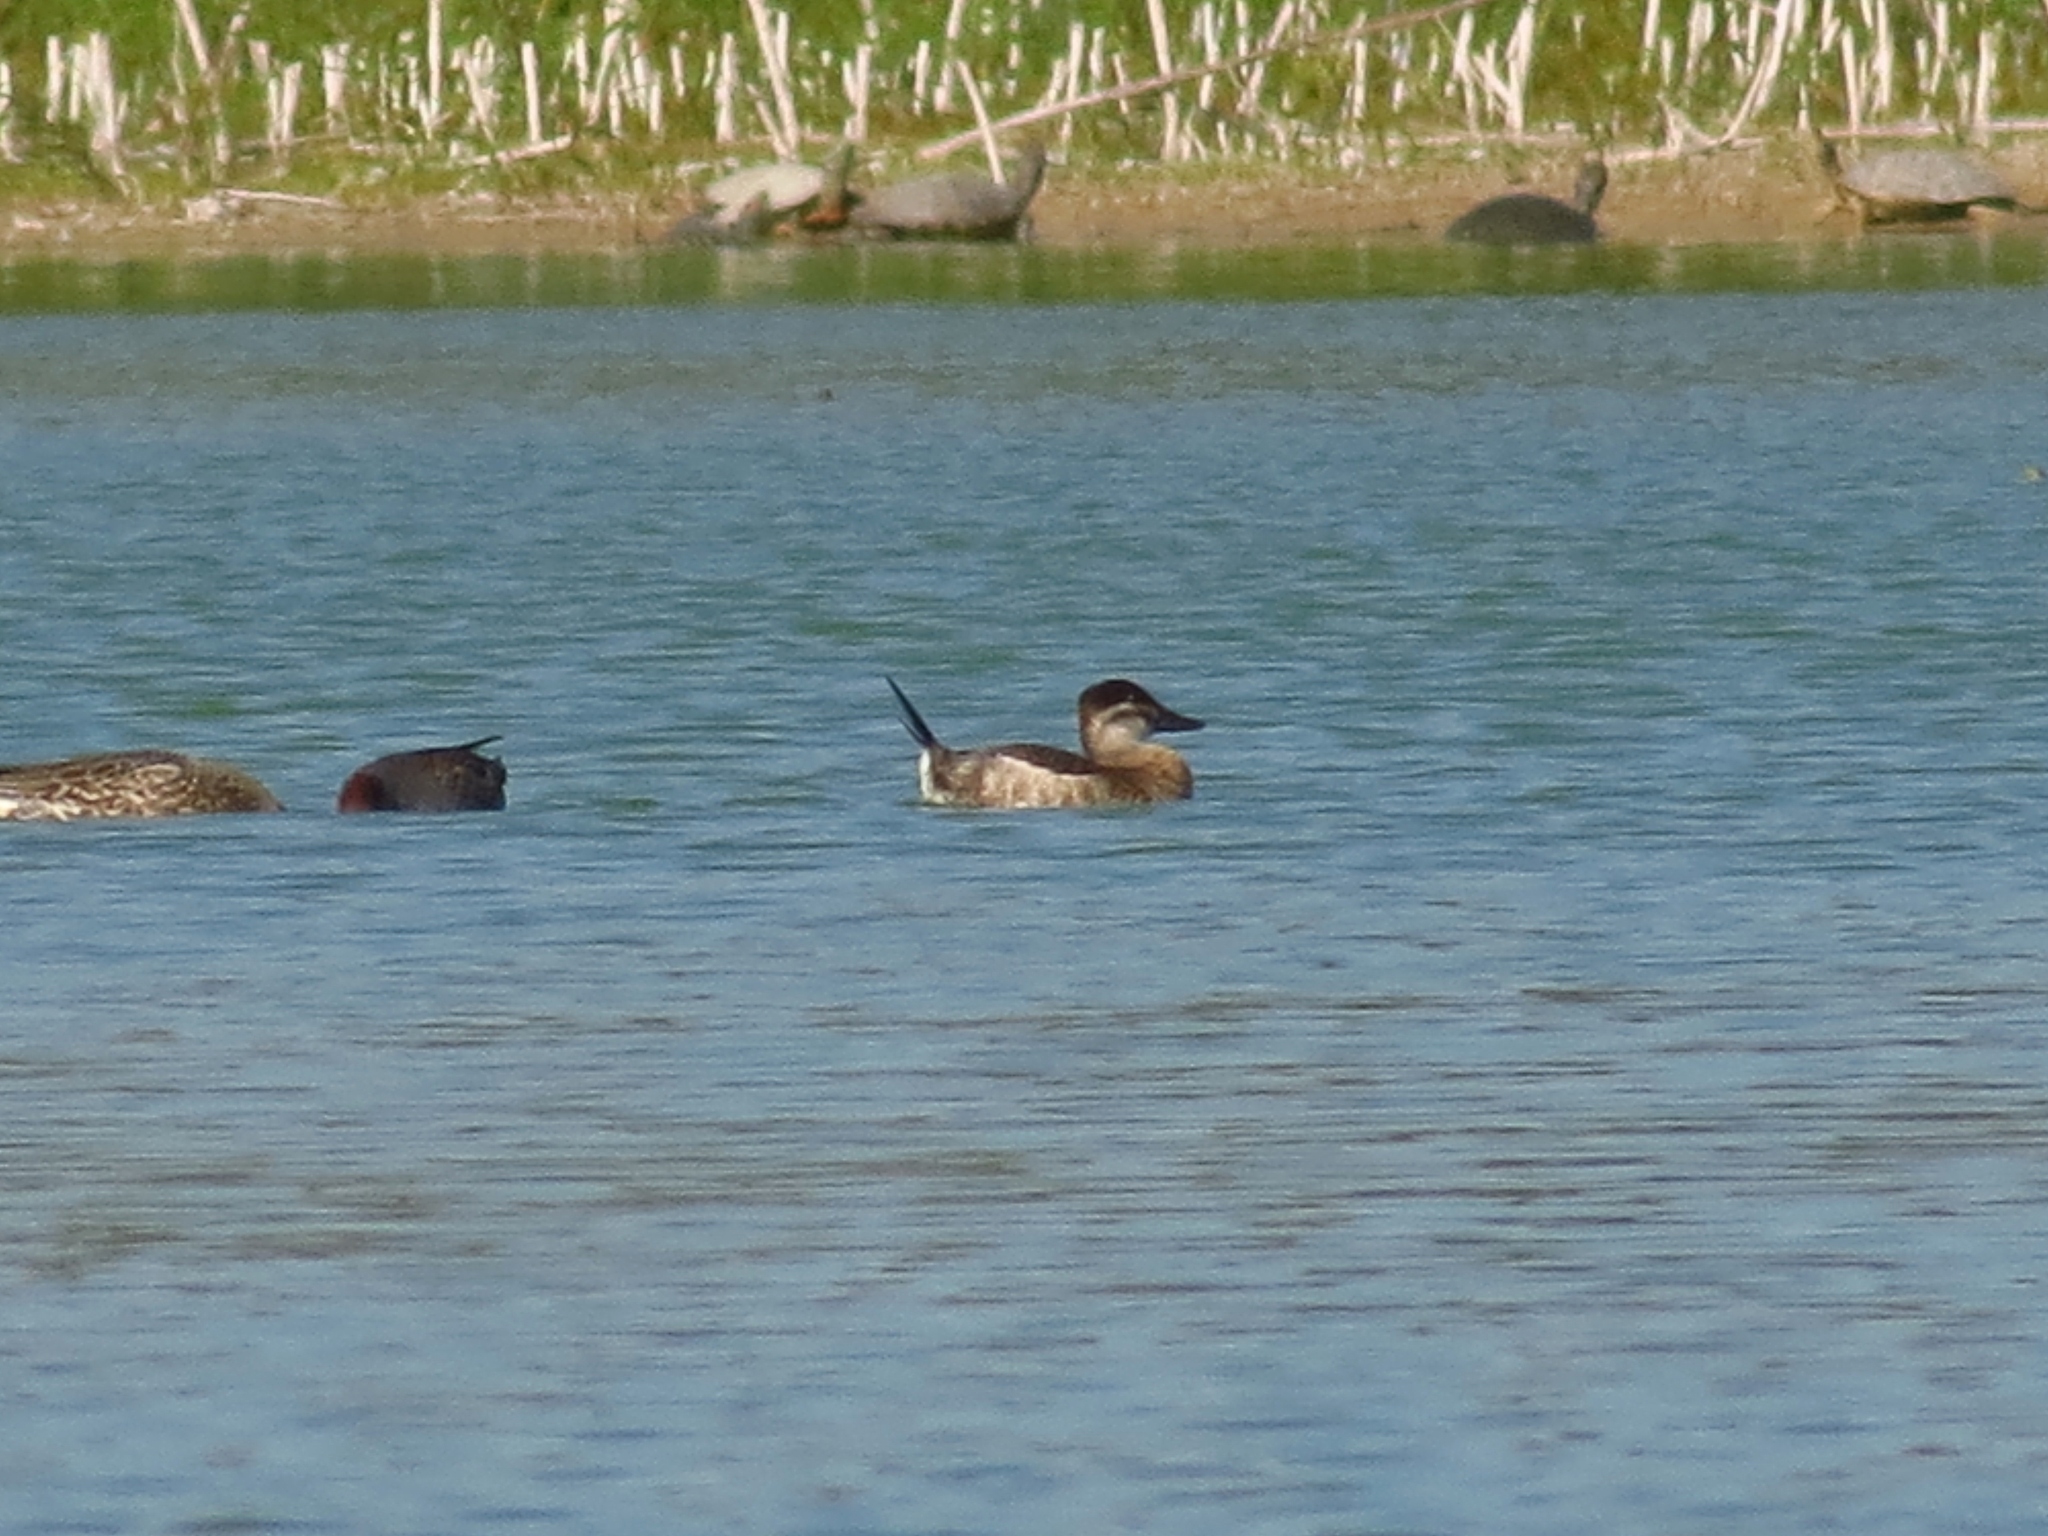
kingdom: Animalia
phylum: Chordata
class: Aves
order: Anseriformes
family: Anatidae
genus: Oxyura
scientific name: Oxyura jamaicensis
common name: Ruddy duck
